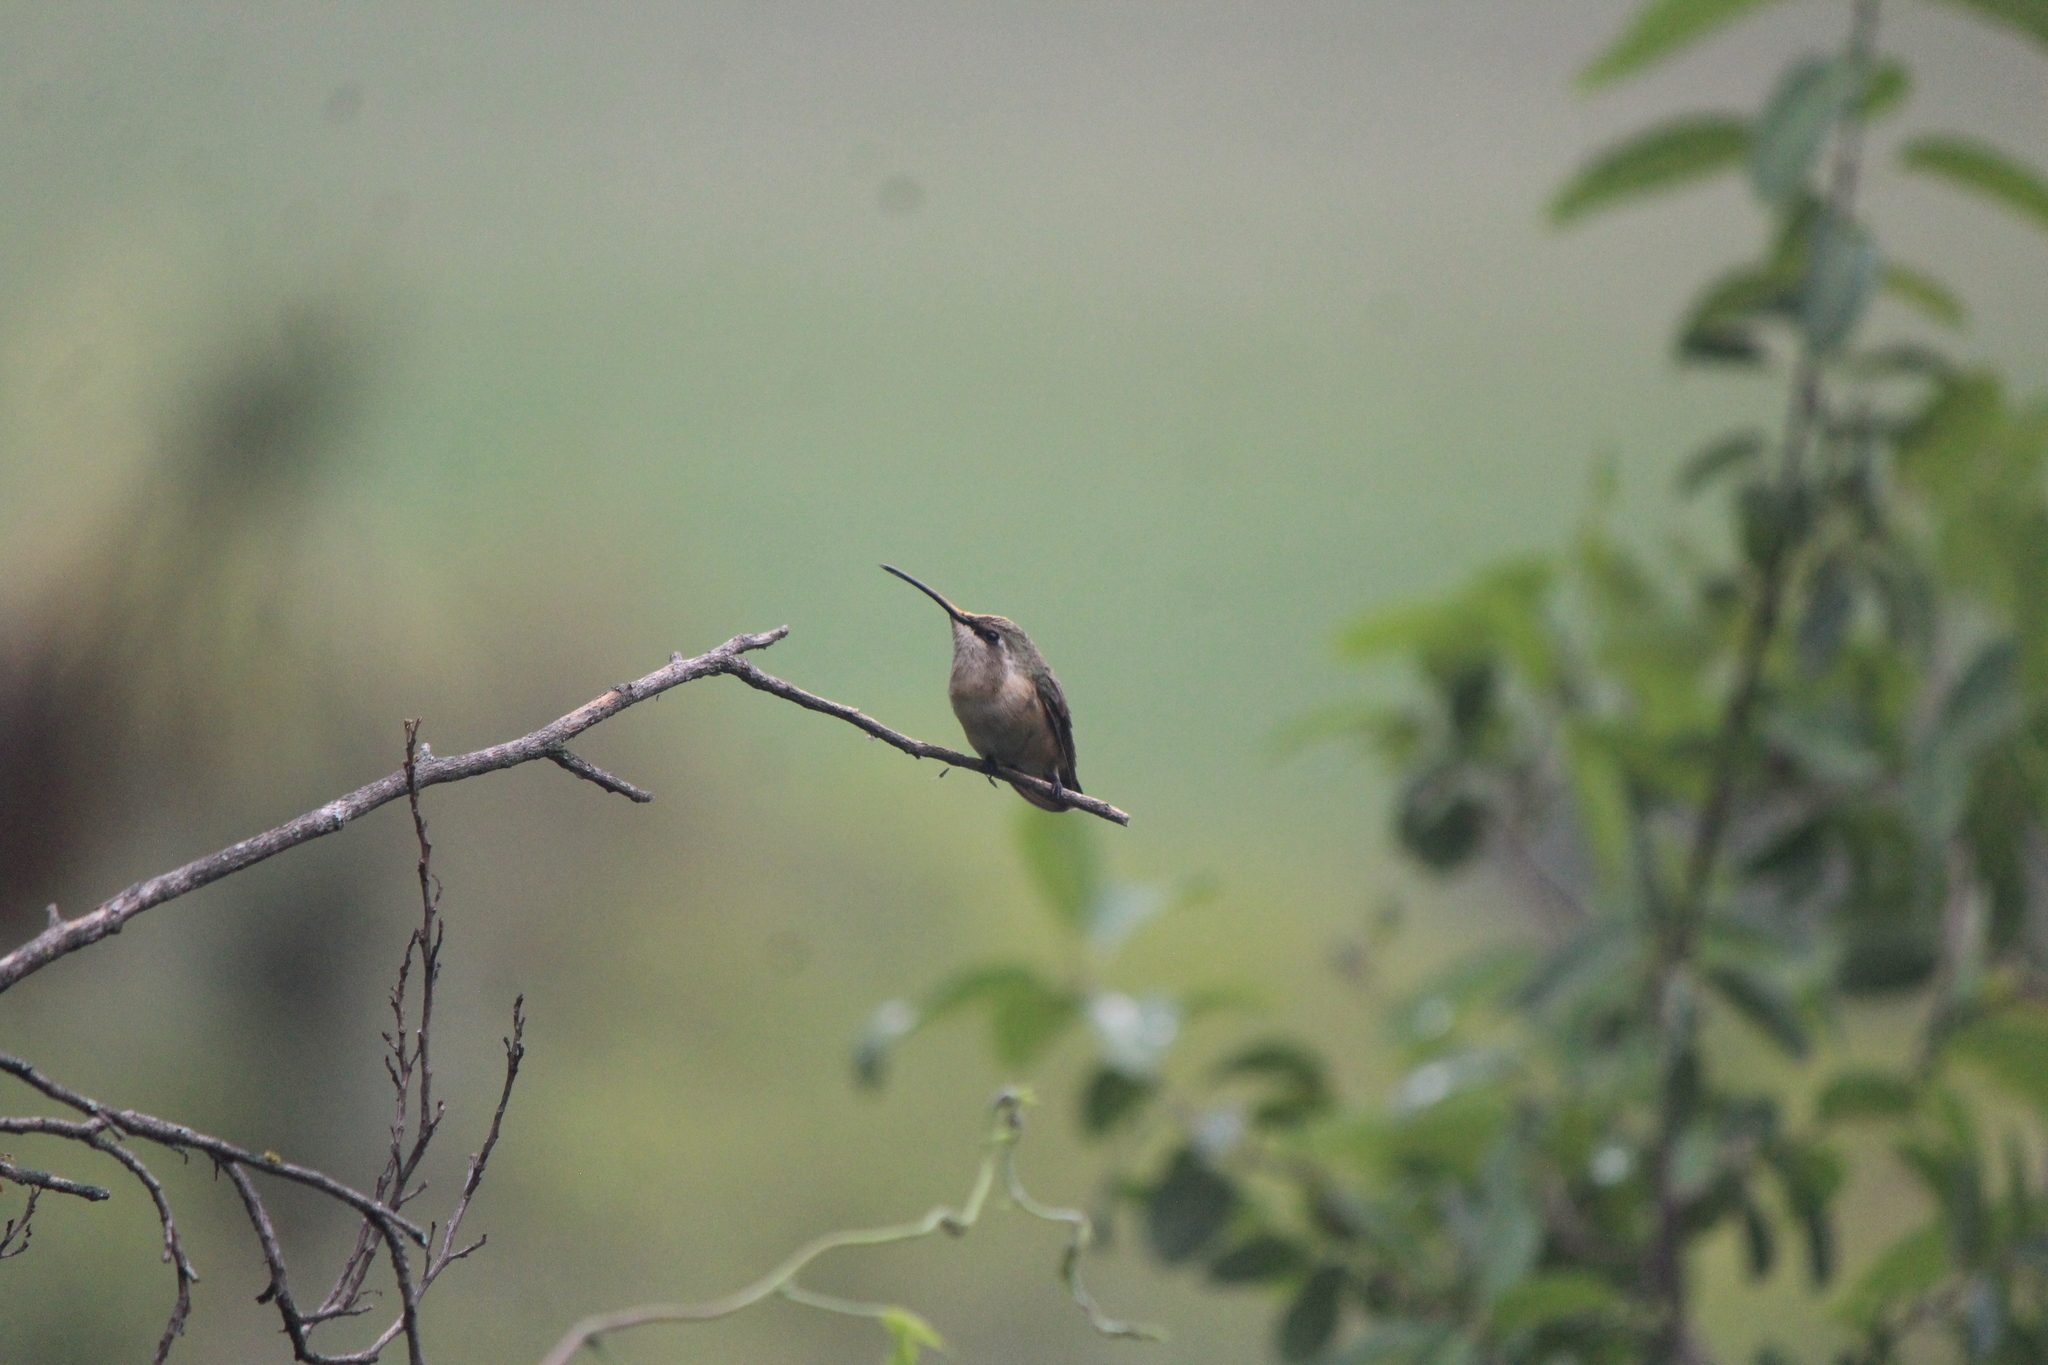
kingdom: Animalia
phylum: Chordata
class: Aves
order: Apodiformes
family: Trochilidae
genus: Calothorax
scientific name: Calothorax lucifer
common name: Lucifer sheartail
